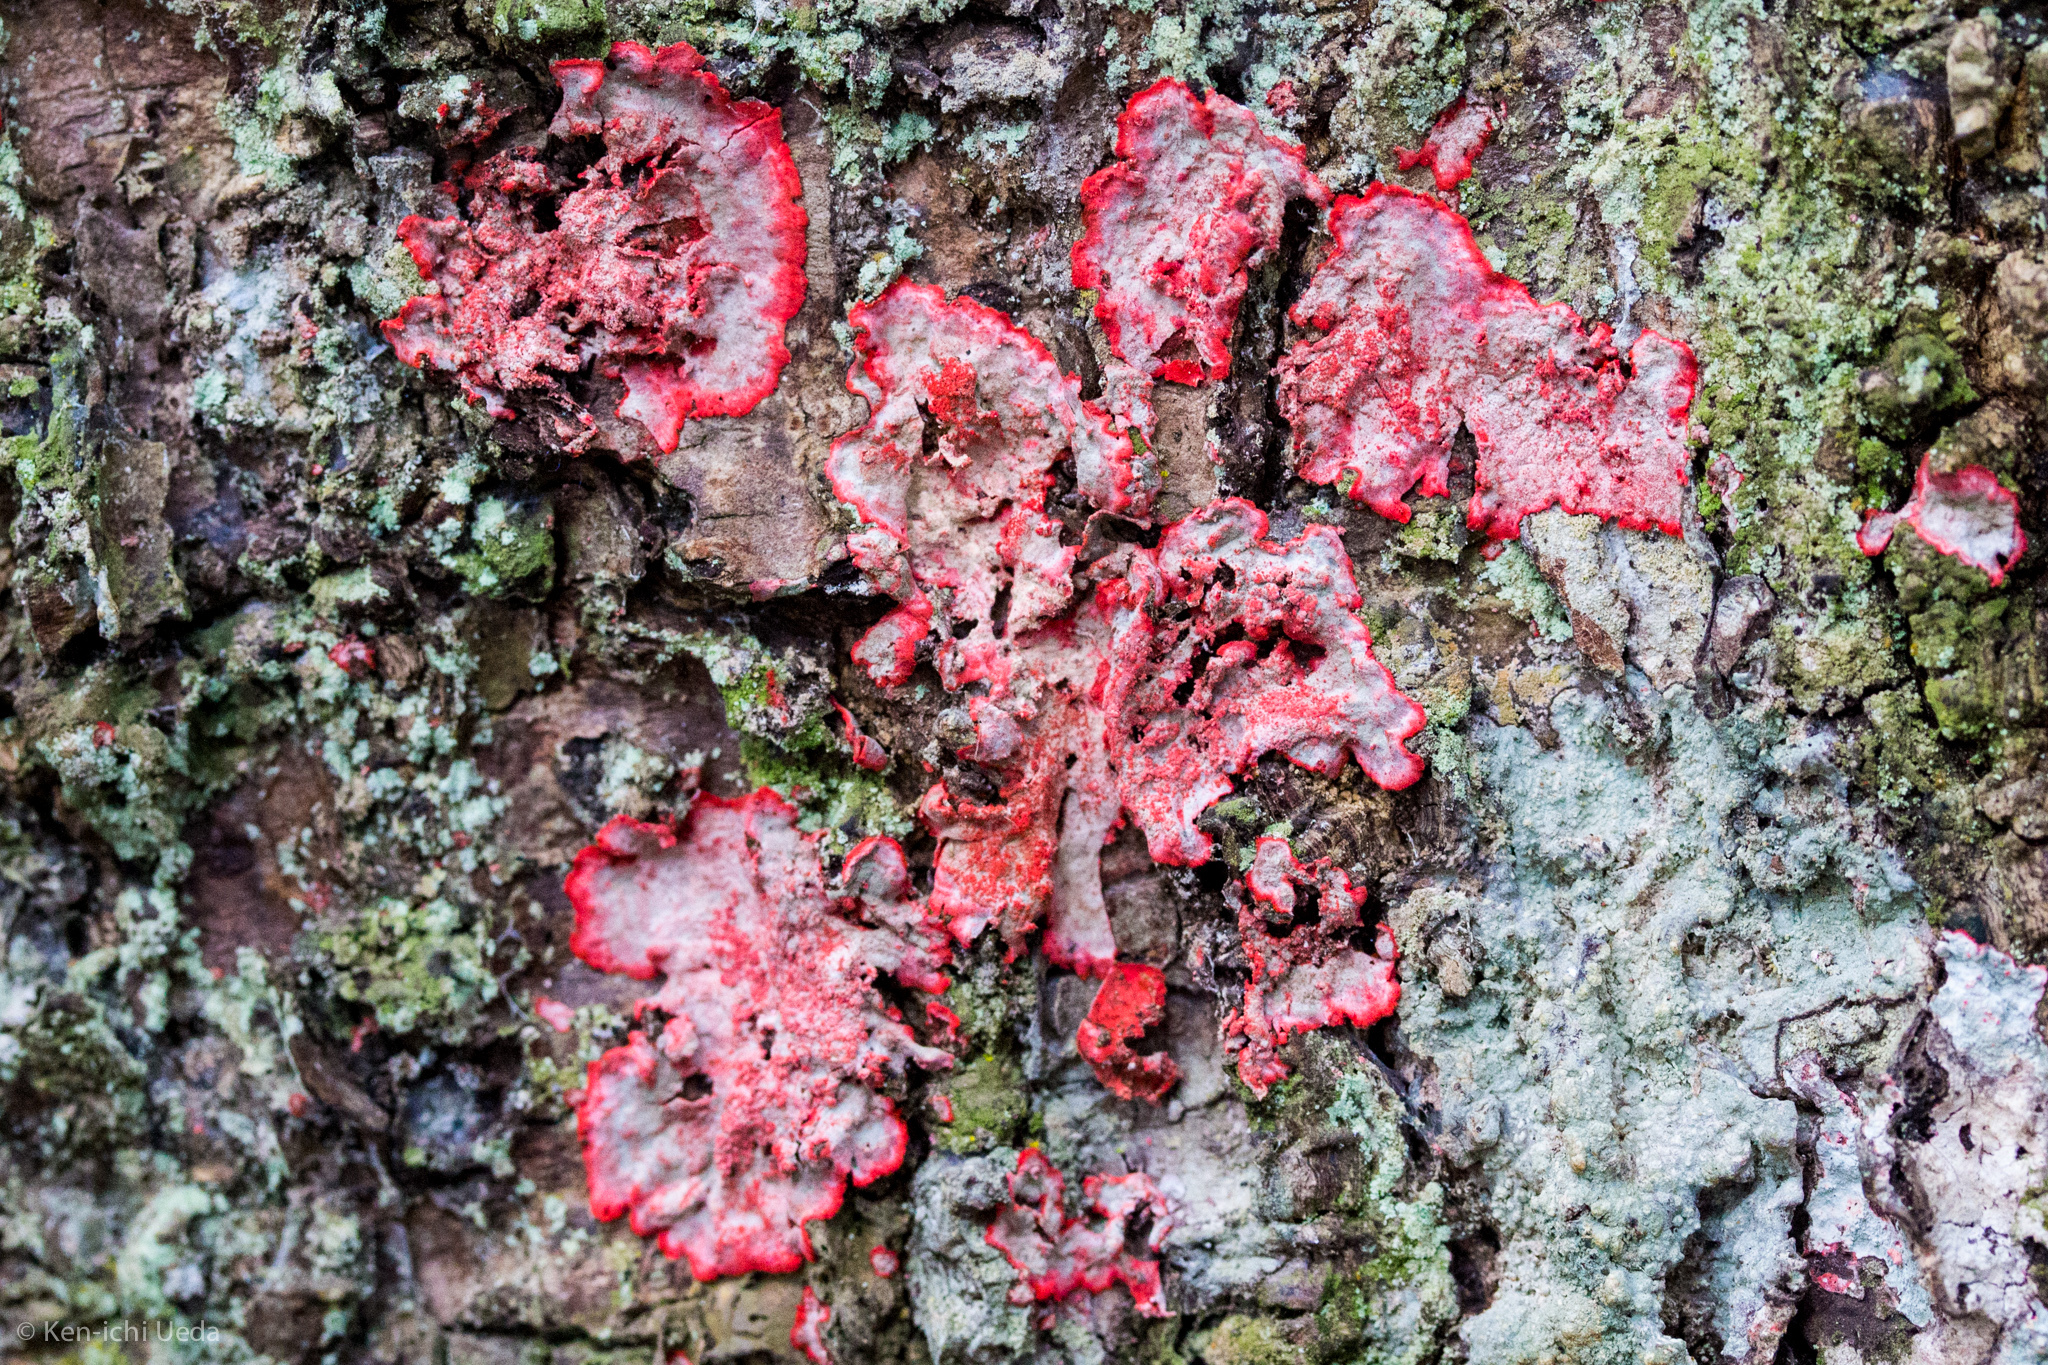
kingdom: Fungi
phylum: Ascomycota
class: Arthoniomycetes
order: Arthoniales
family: Arthoniaceae
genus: Herpothallon
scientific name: Herpothallon rubrocinctum
